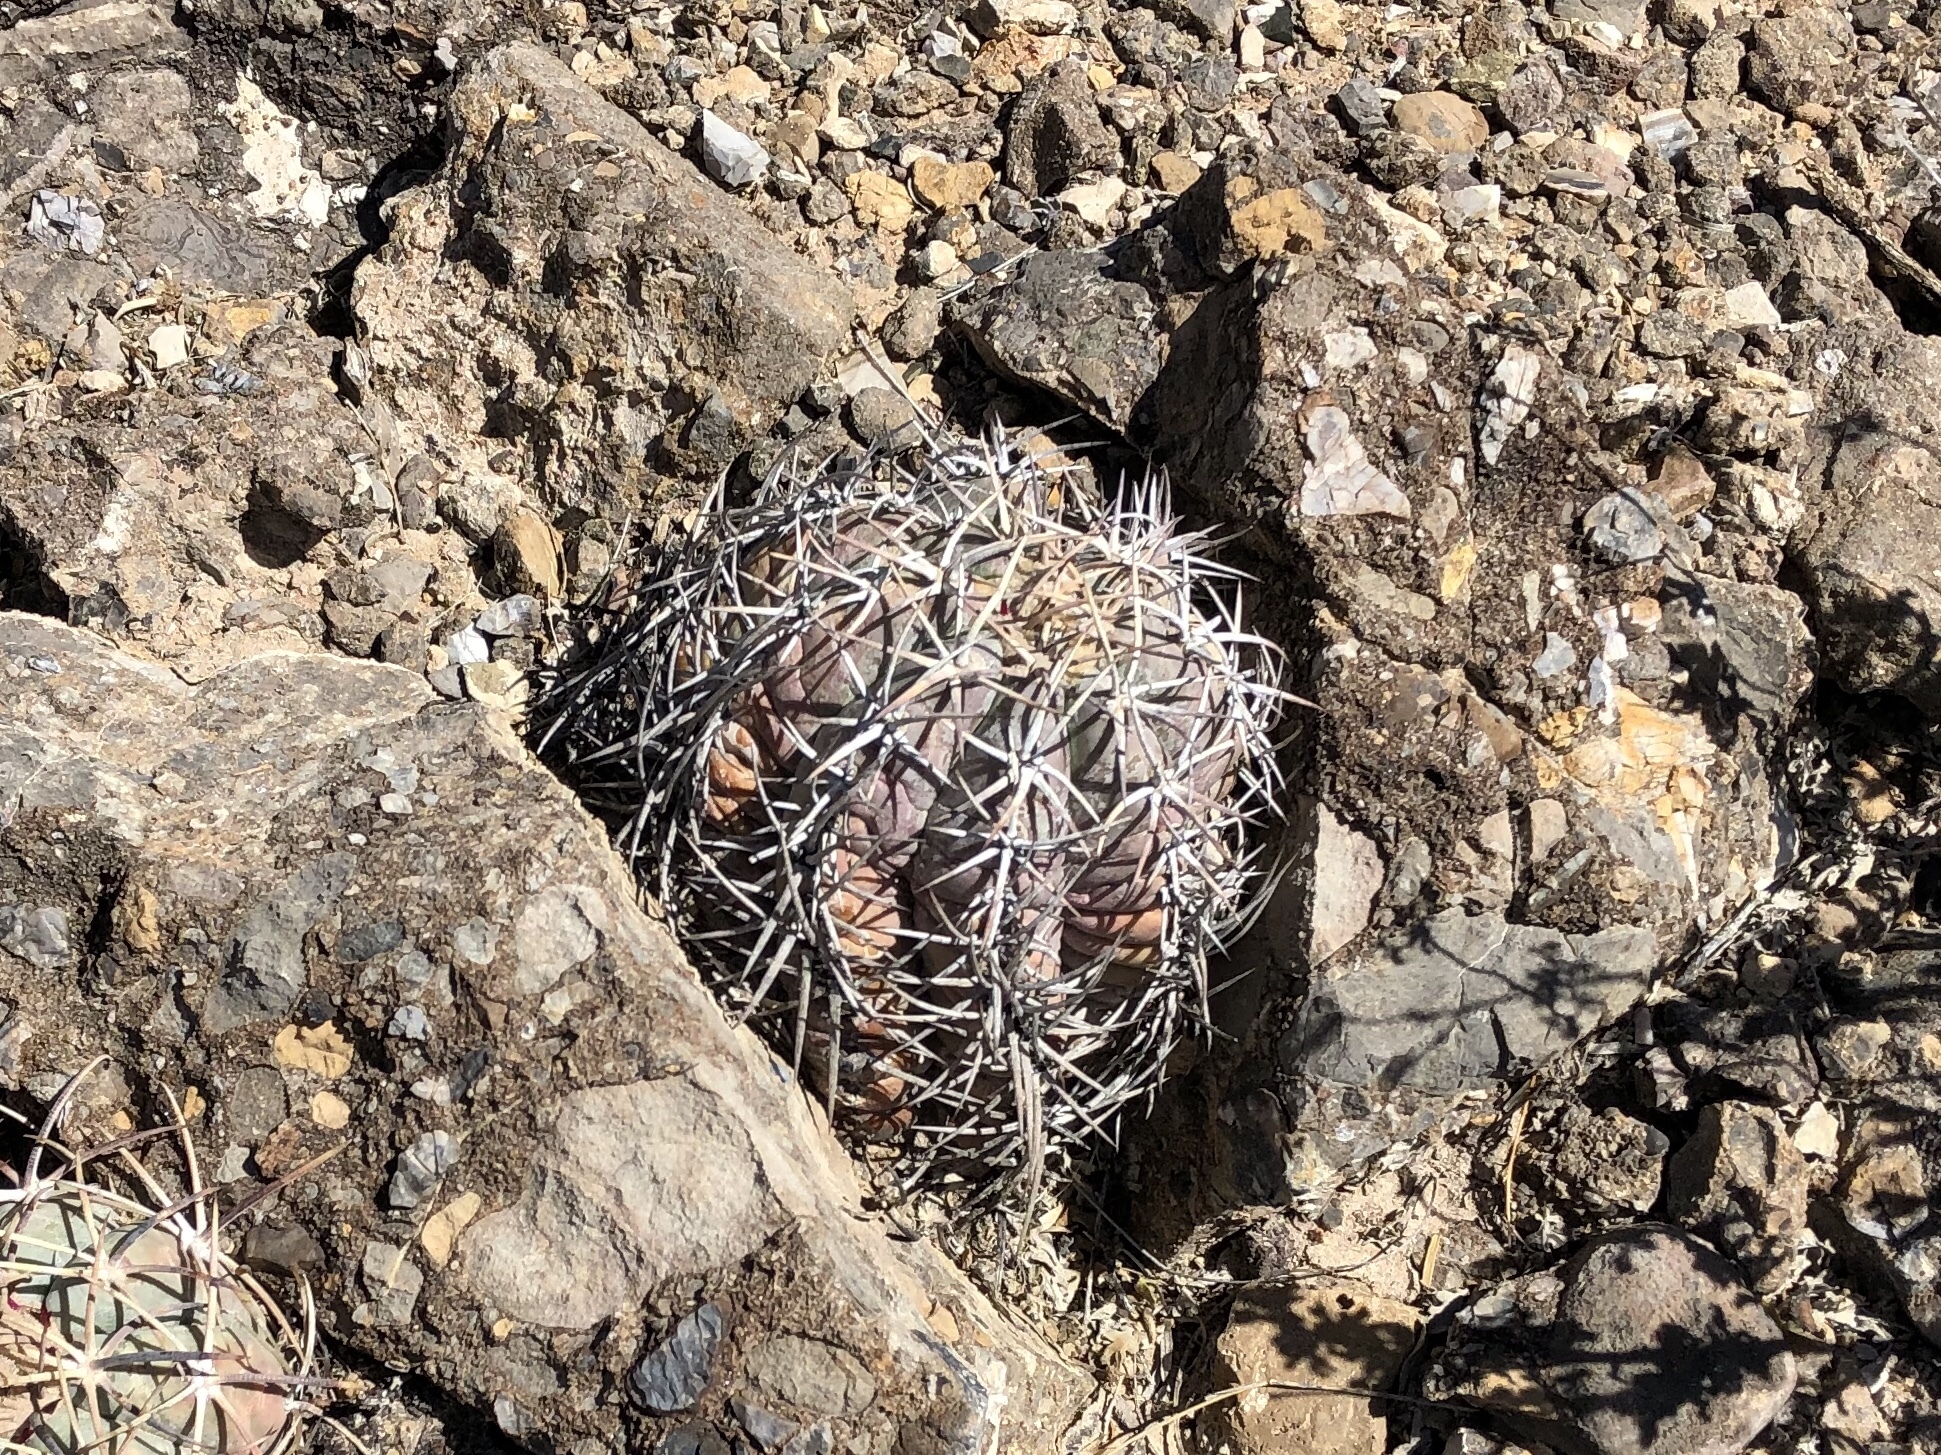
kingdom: Plantae
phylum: Tracheophyta
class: Magnoliopsida
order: Caryophyllales
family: Cactaceae
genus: Echinocactus
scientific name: Echinocactus horizonthalonius
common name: Devilshead
